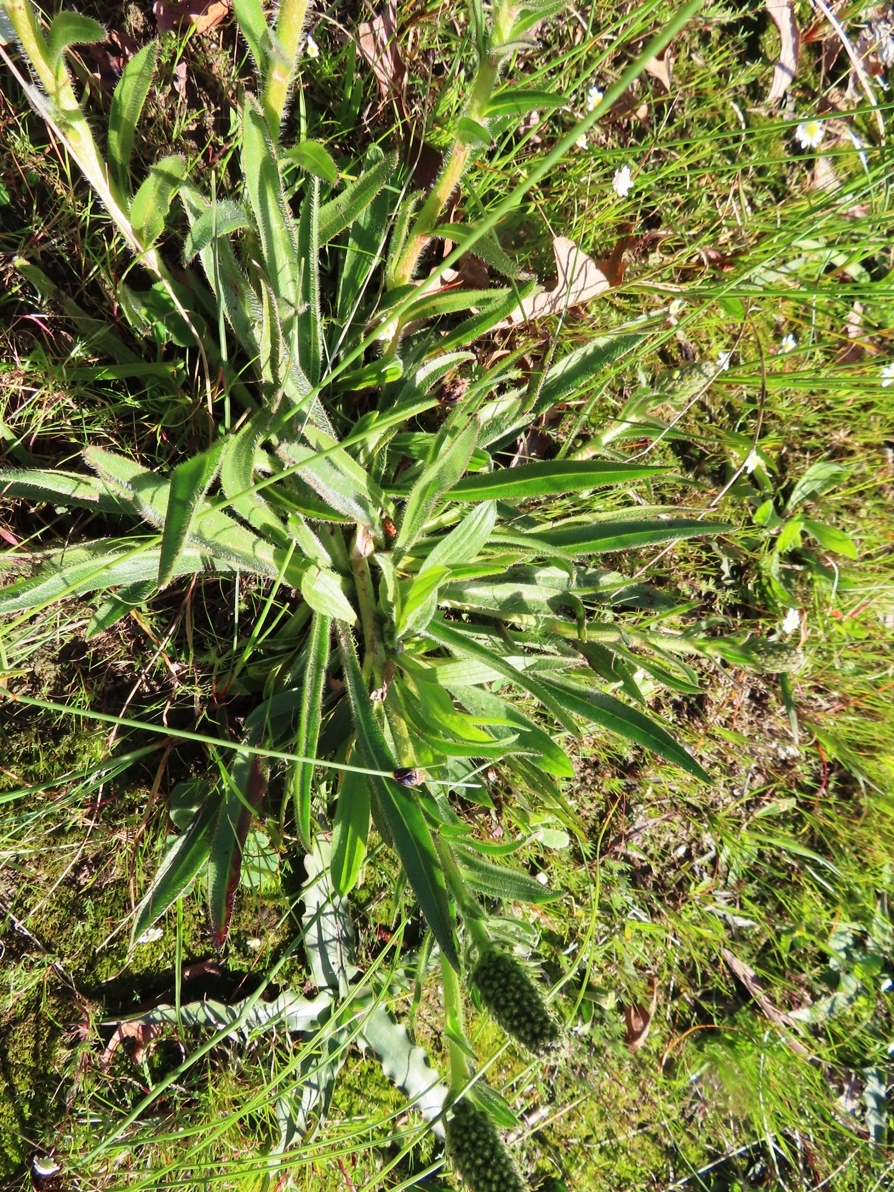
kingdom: Plantae
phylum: Tracheophyta
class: Magnoliopsida
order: Boraginales
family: Boraginaceae
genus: Lobostemon
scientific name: Lobostemon splendens
